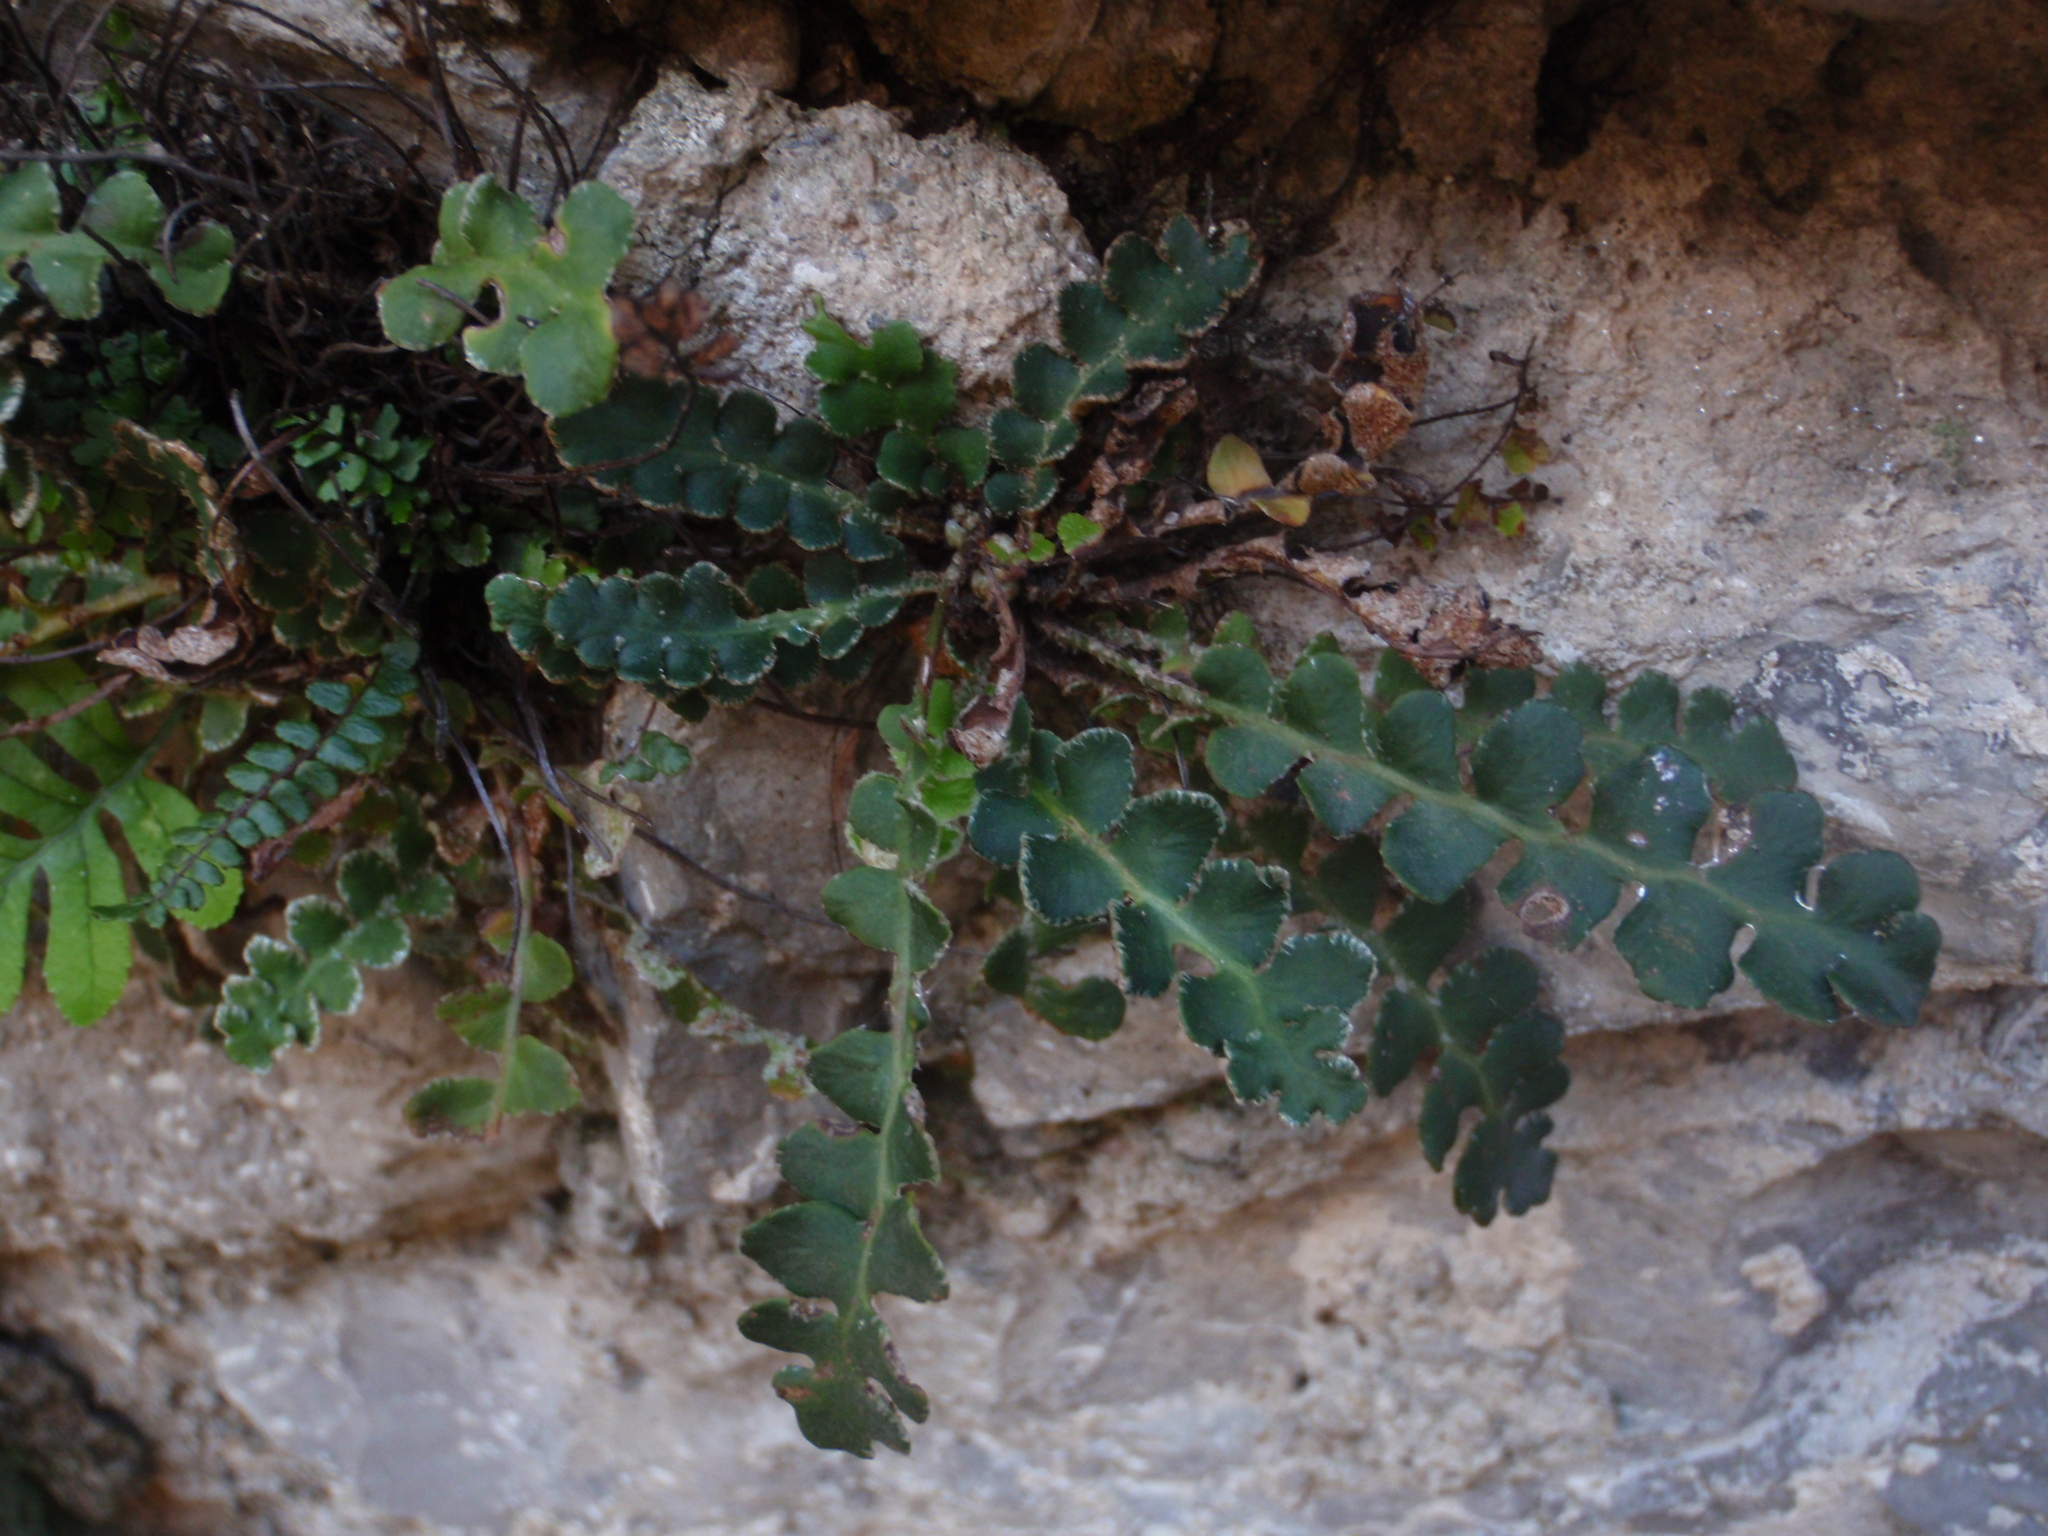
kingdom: Plantae
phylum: Tracheophyta
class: Polypodiopsida
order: Polypodiales
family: Aspleniaceae
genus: Asplenium
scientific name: Asplenium ceterach
